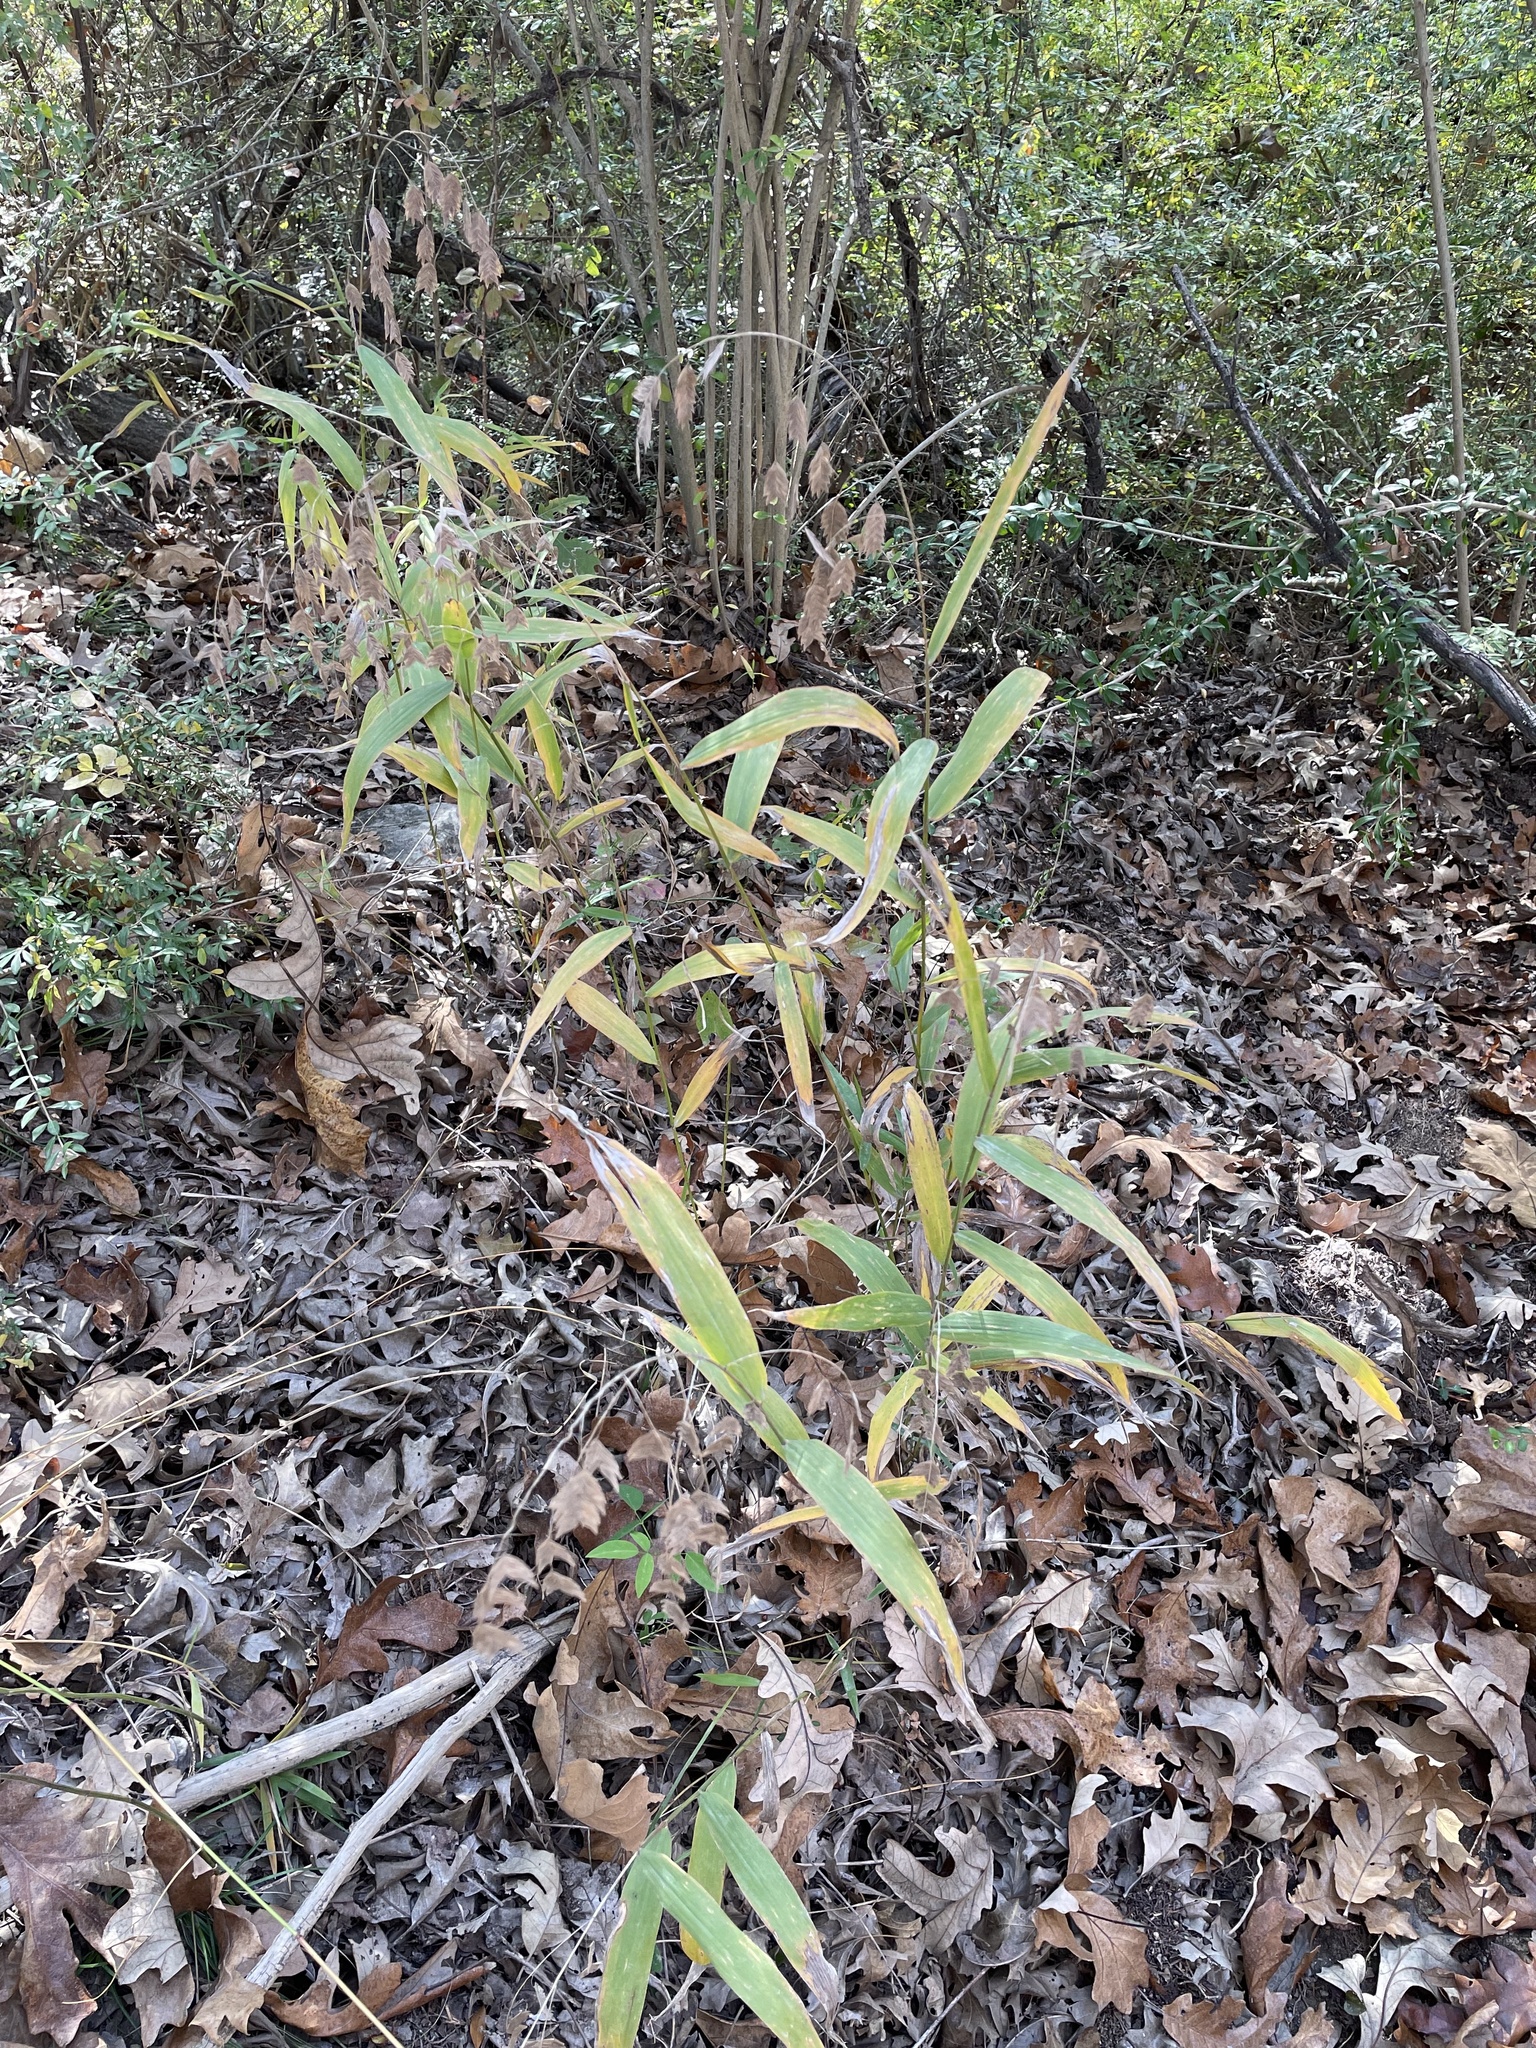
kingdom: Plantae
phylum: Tracheophyta
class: Liliopsida
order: Poales
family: Poaceae
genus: Chasmanthium
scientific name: Chasmanthium latifolium
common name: Broad-leaved chasmanthium
